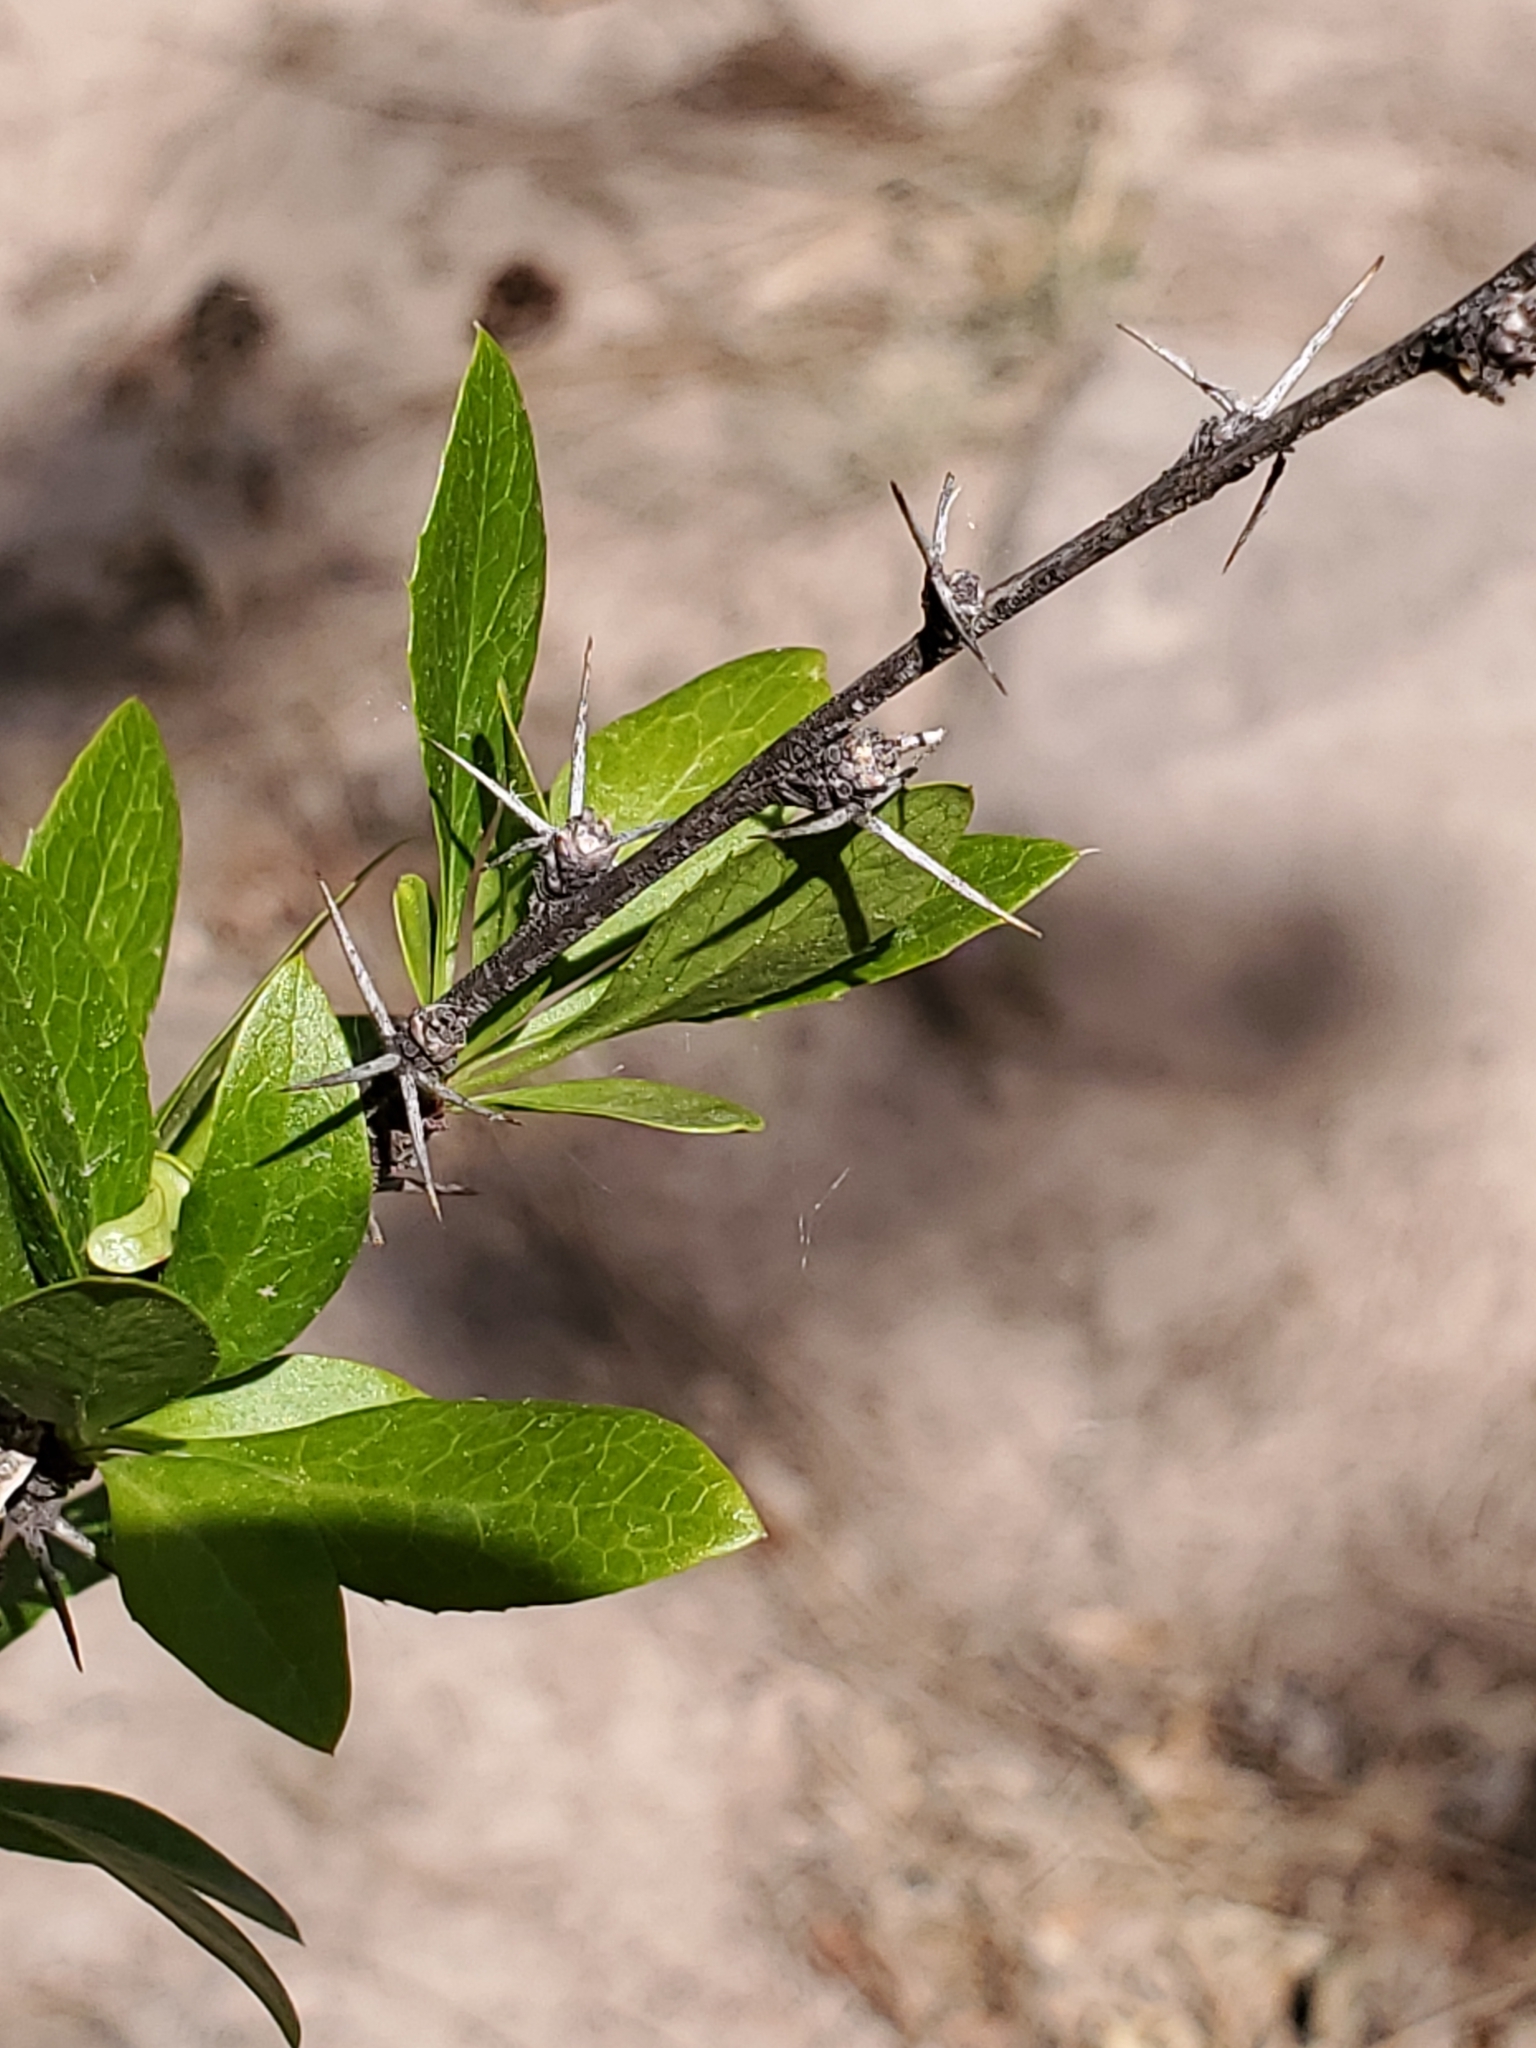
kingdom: Plantae
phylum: Tracheophyta
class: Magnoliopsida
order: Ranunculales
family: Berberidaceae
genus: Berberis
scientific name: Berberis fendleri
